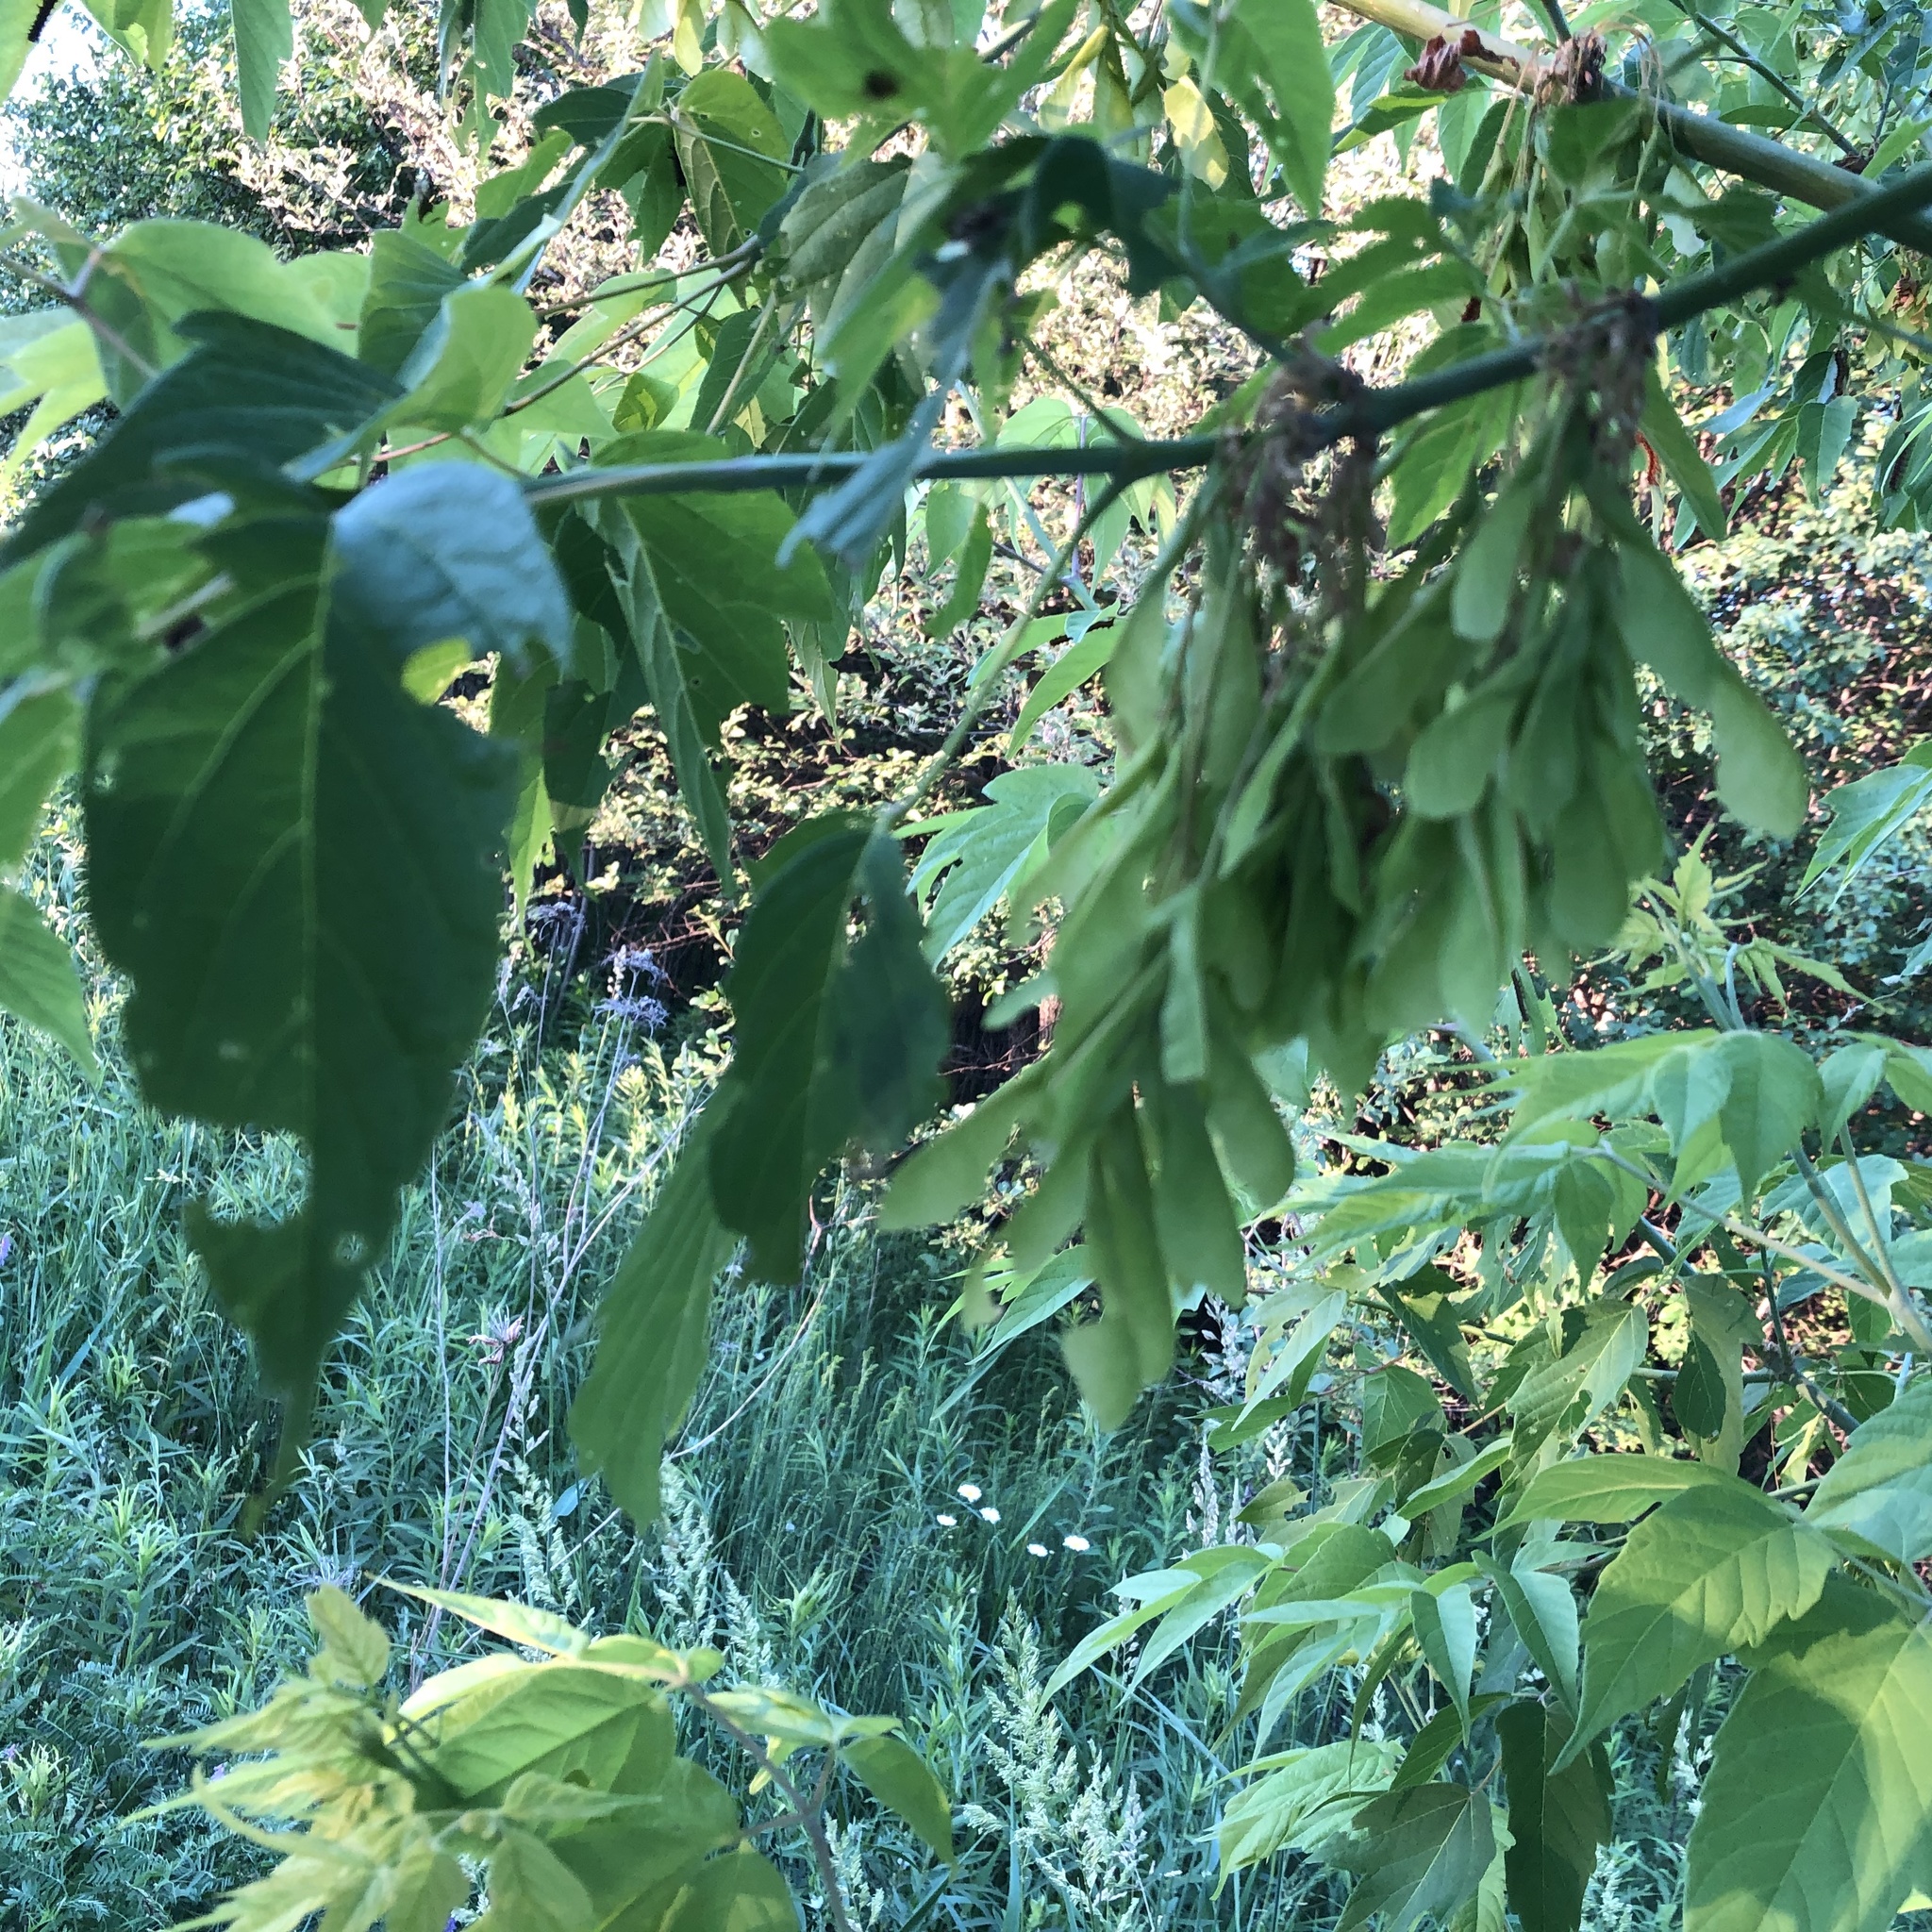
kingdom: Plantae
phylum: Tracheophyta
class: Magnoliopsida
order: Sapindales
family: Sapindaceae
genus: Acer
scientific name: Acer negundo
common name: Ashleaf maple
